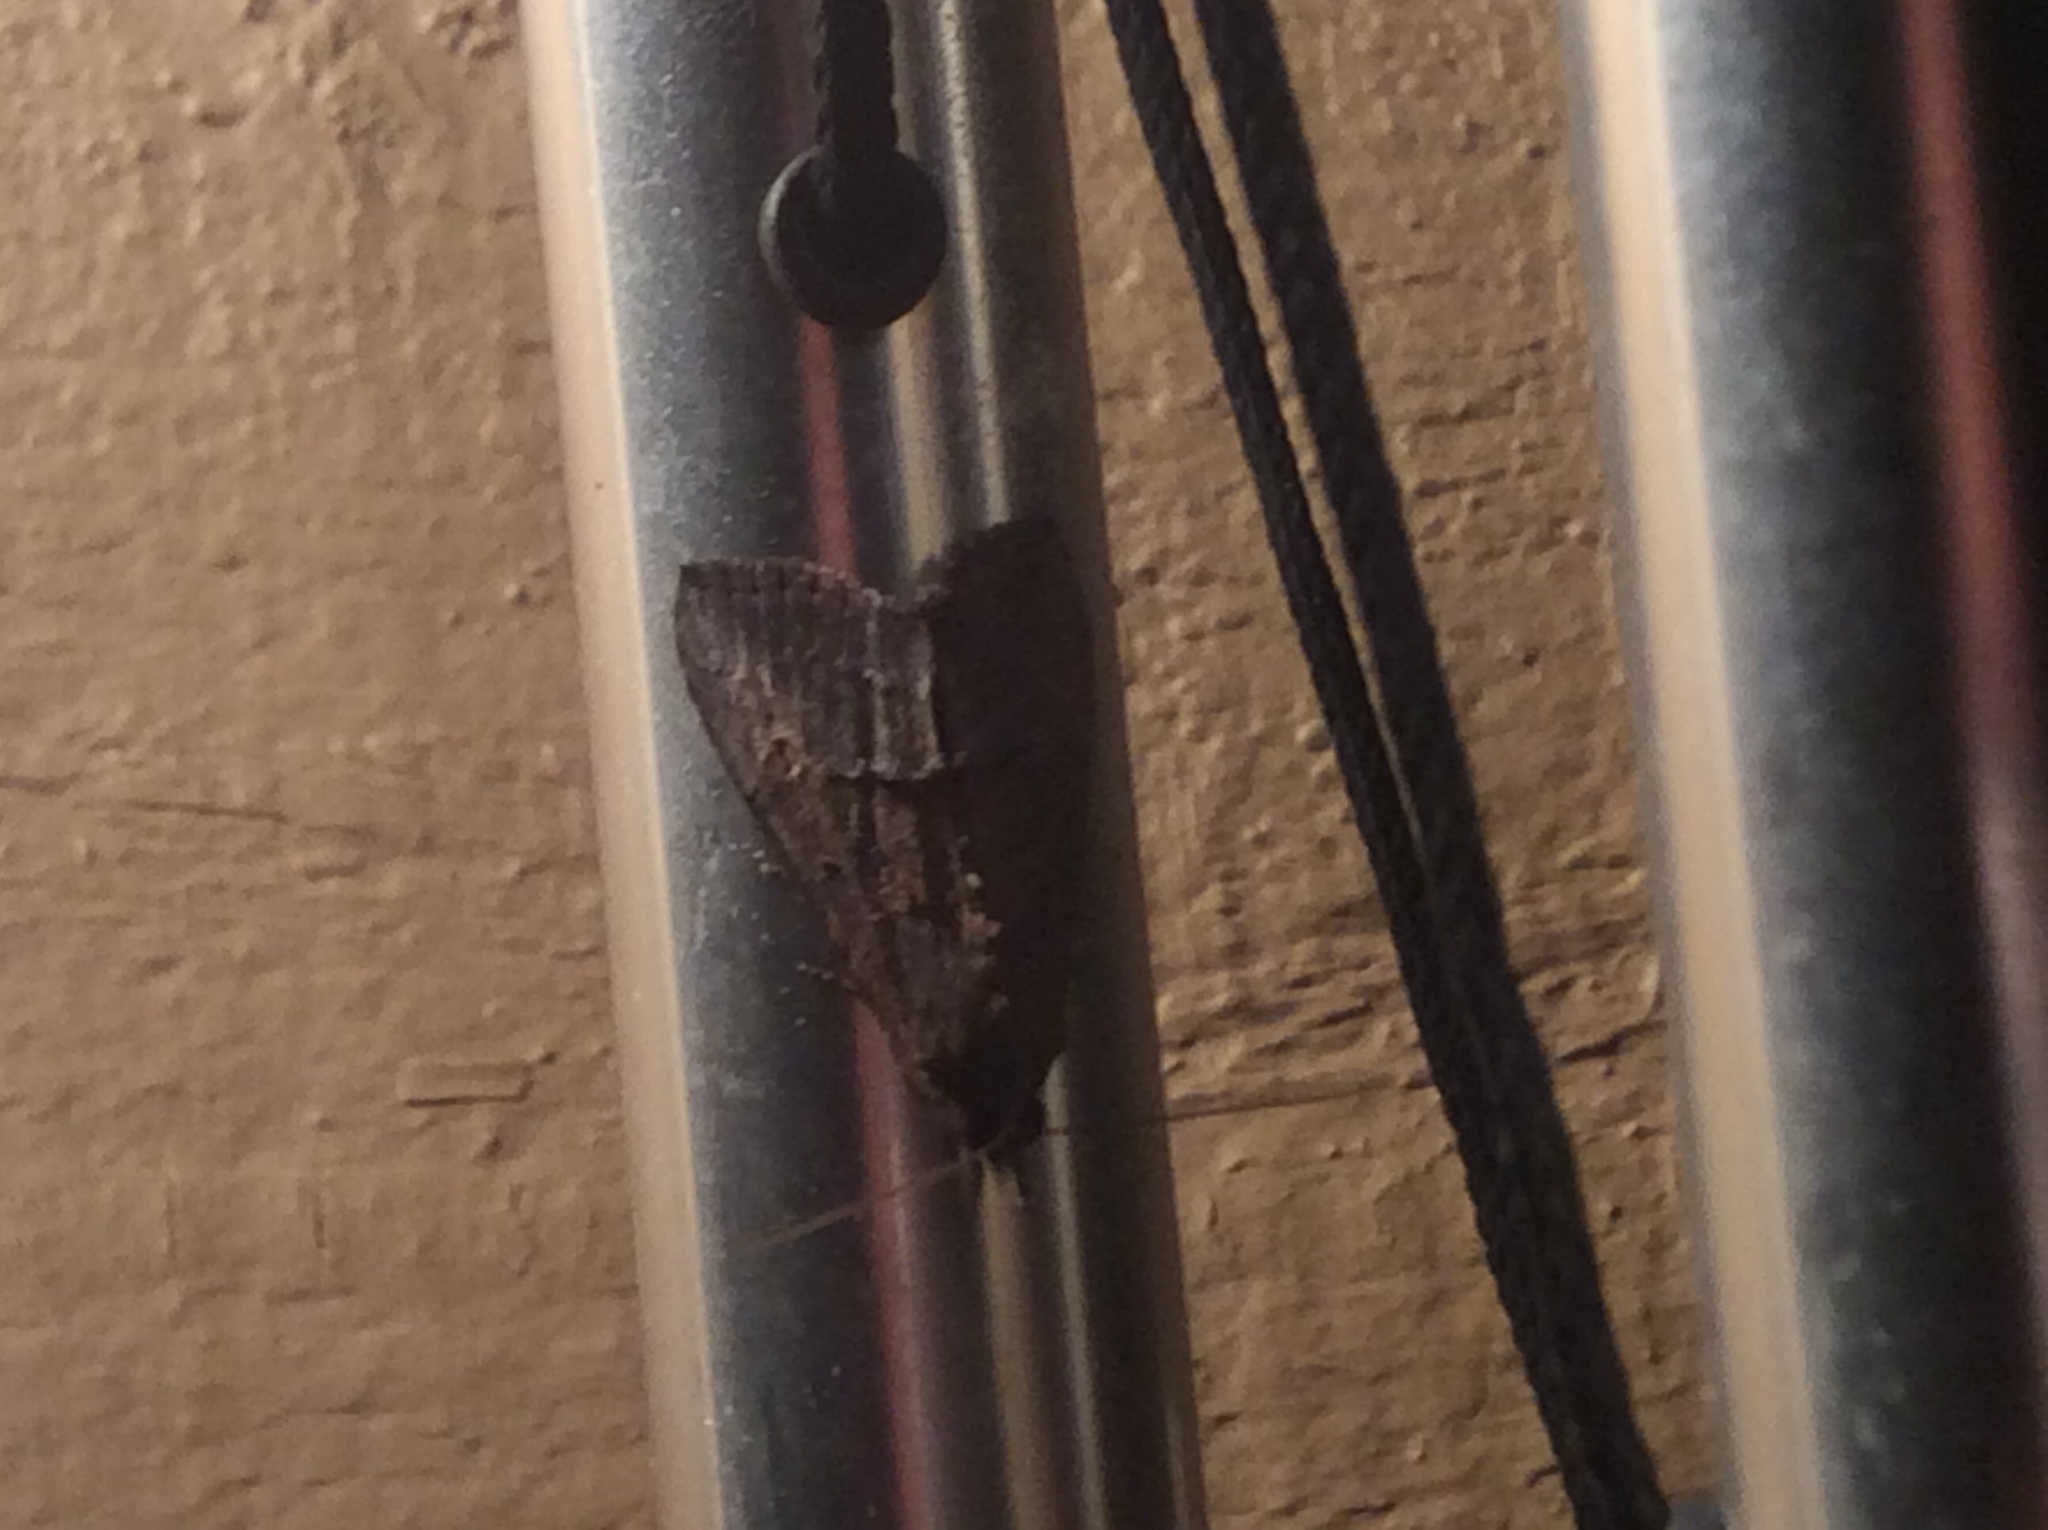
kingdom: Animalia
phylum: Arthropoda
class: Insecta
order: Lepidoptera
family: Erebidae
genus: Hypena
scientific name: Hypena scabra
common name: Green cloverworm
